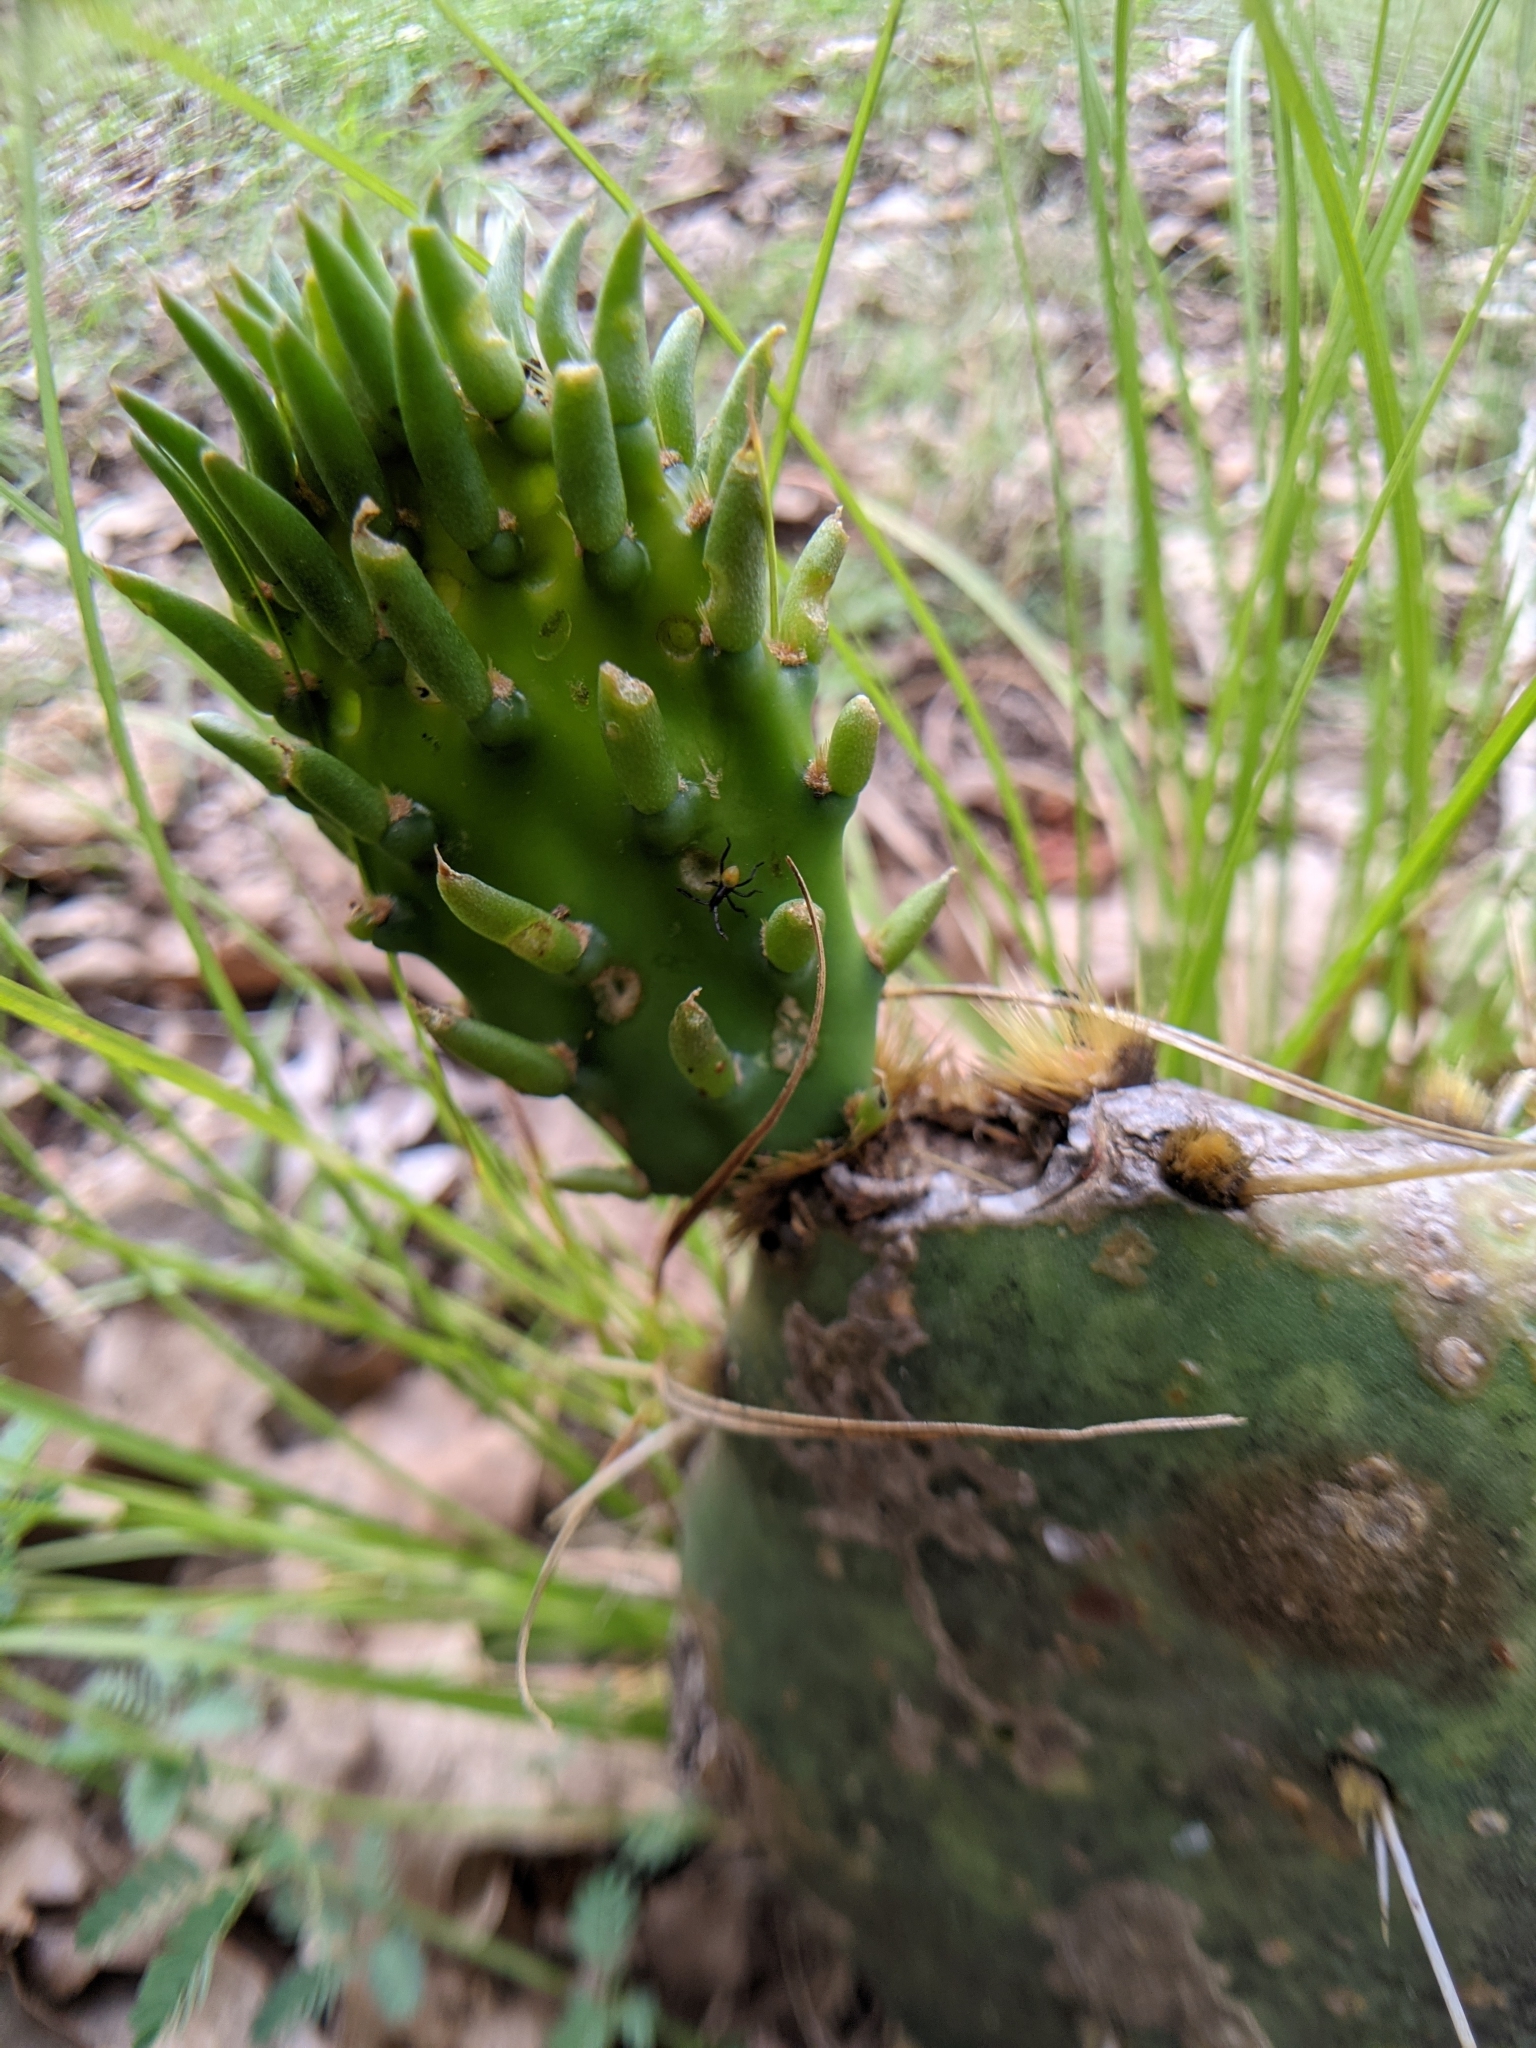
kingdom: Animalia
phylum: Arthropoda
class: Insecta
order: Hemiptera
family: Coreidae
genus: Chelinidea
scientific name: Chelinidea vittiger
